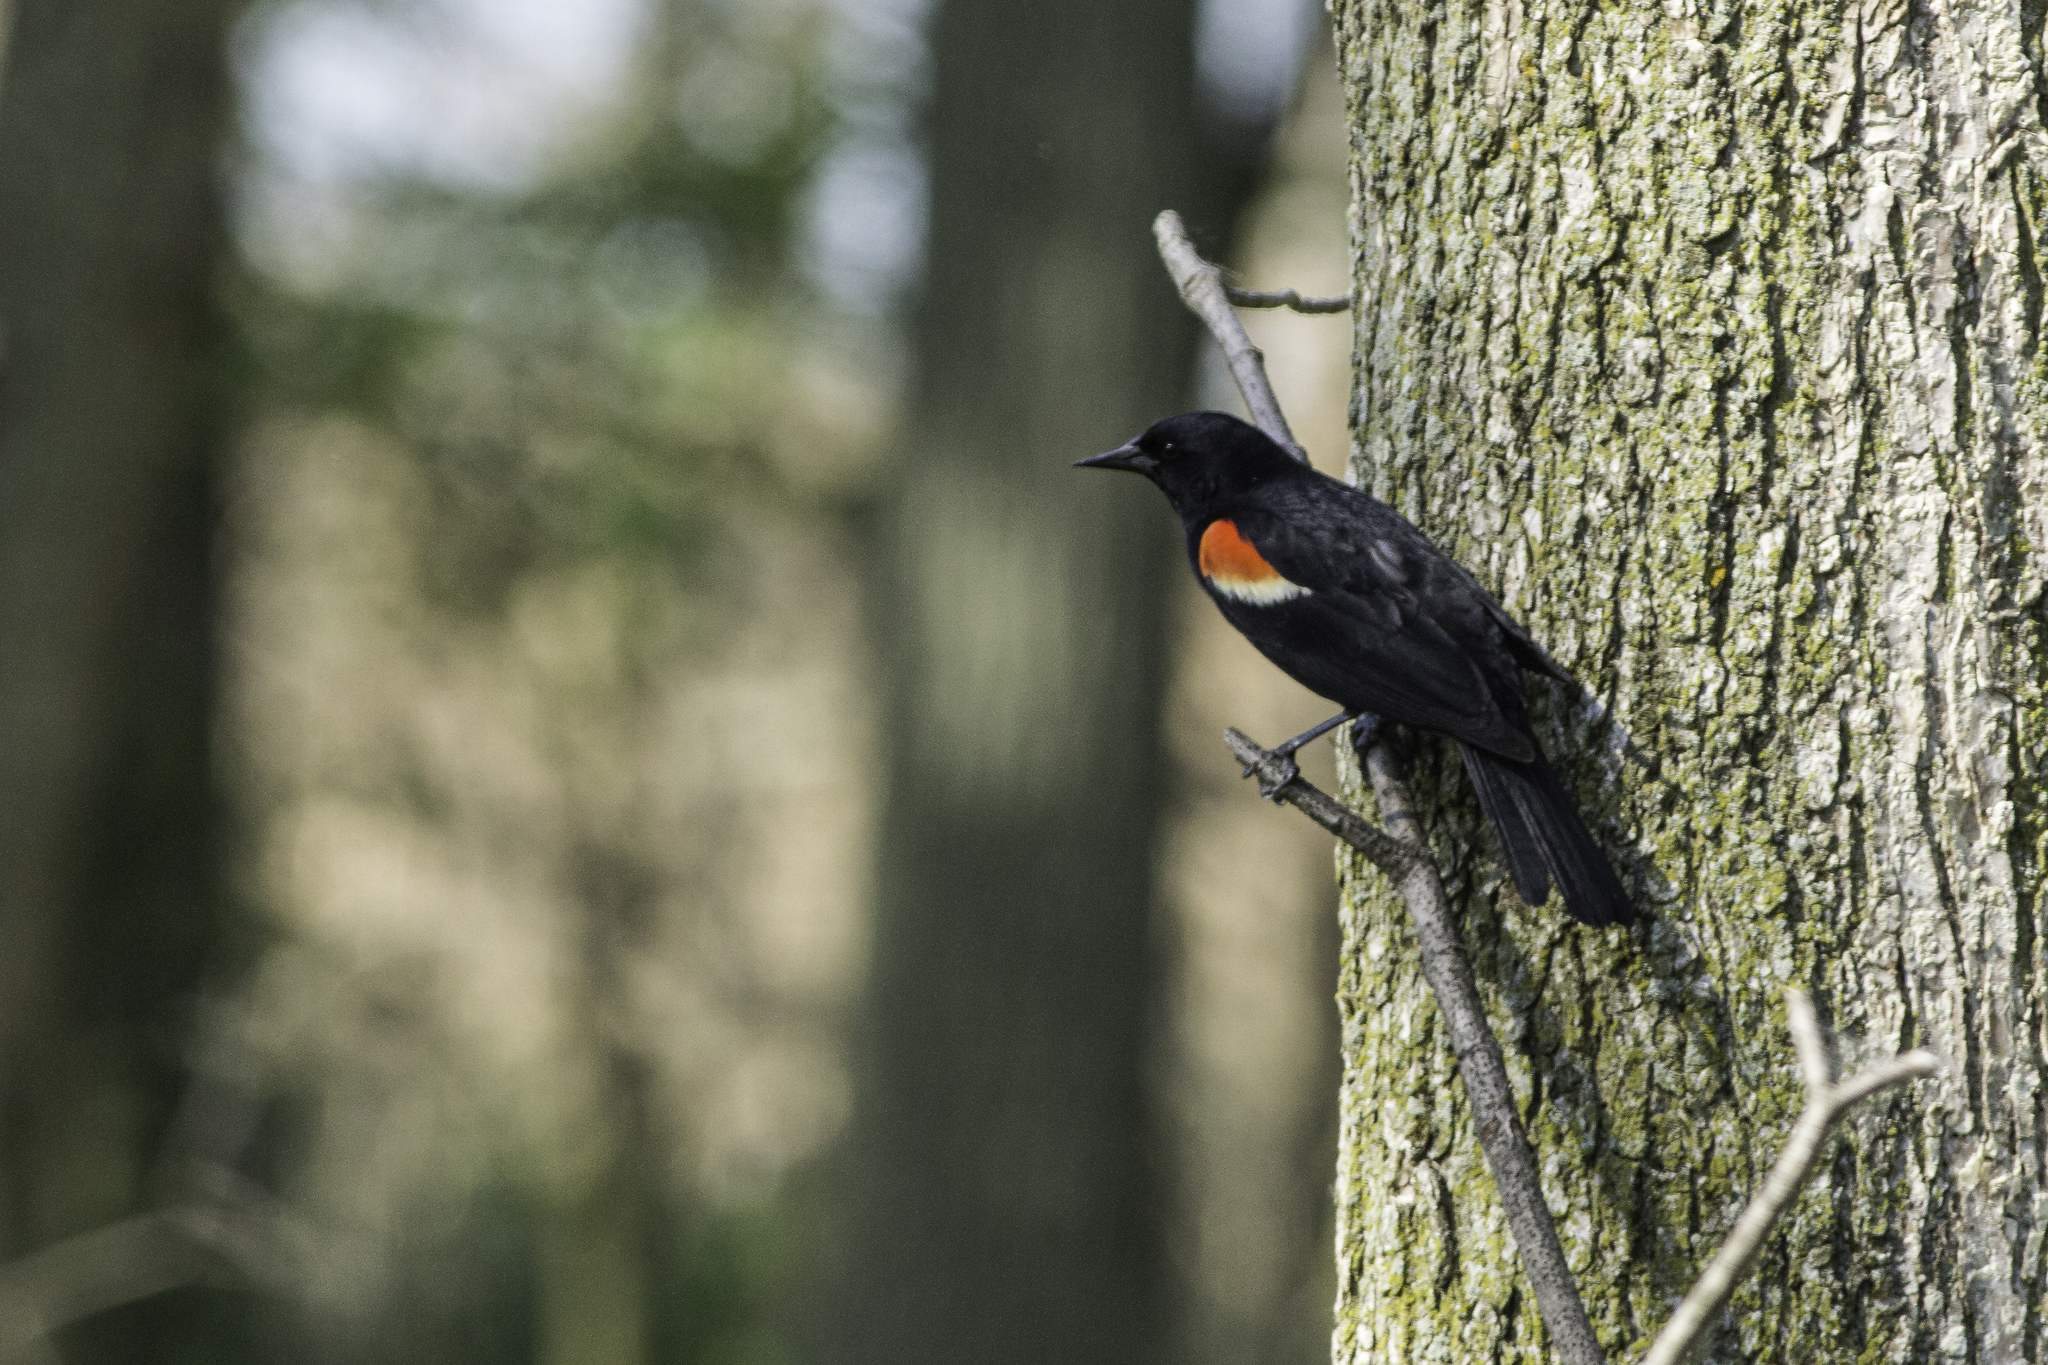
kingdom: Animalia
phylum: Chordata
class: Aves
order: Passeriformes
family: Icteridae
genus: Agelaius
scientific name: Agelaius phoeniceus
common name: Red-winged blackbird
